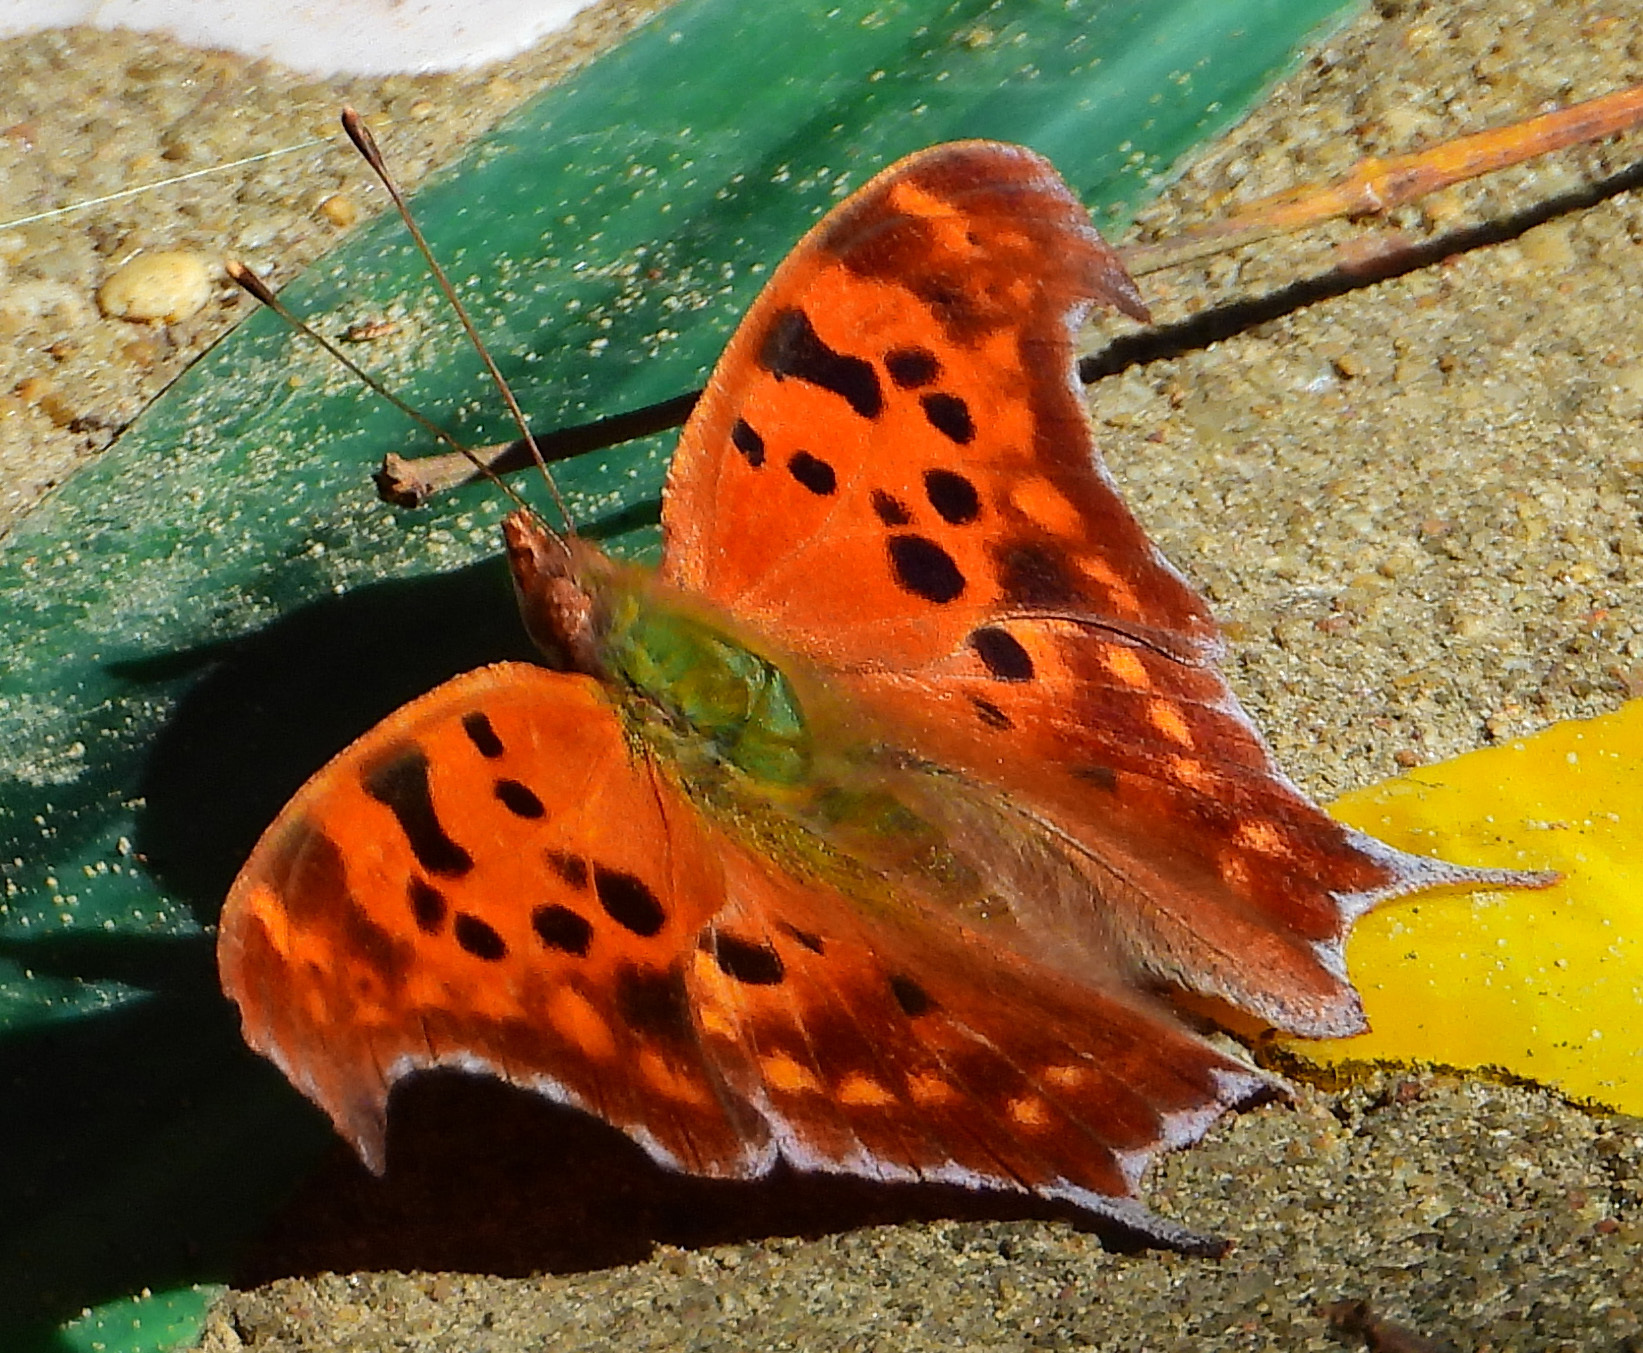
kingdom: Animalia
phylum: Arthropoda
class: Insecta
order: Lepidoptera
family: Nymphalidae
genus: Polygonia
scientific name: Polygonia interrogationis
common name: Question mark
